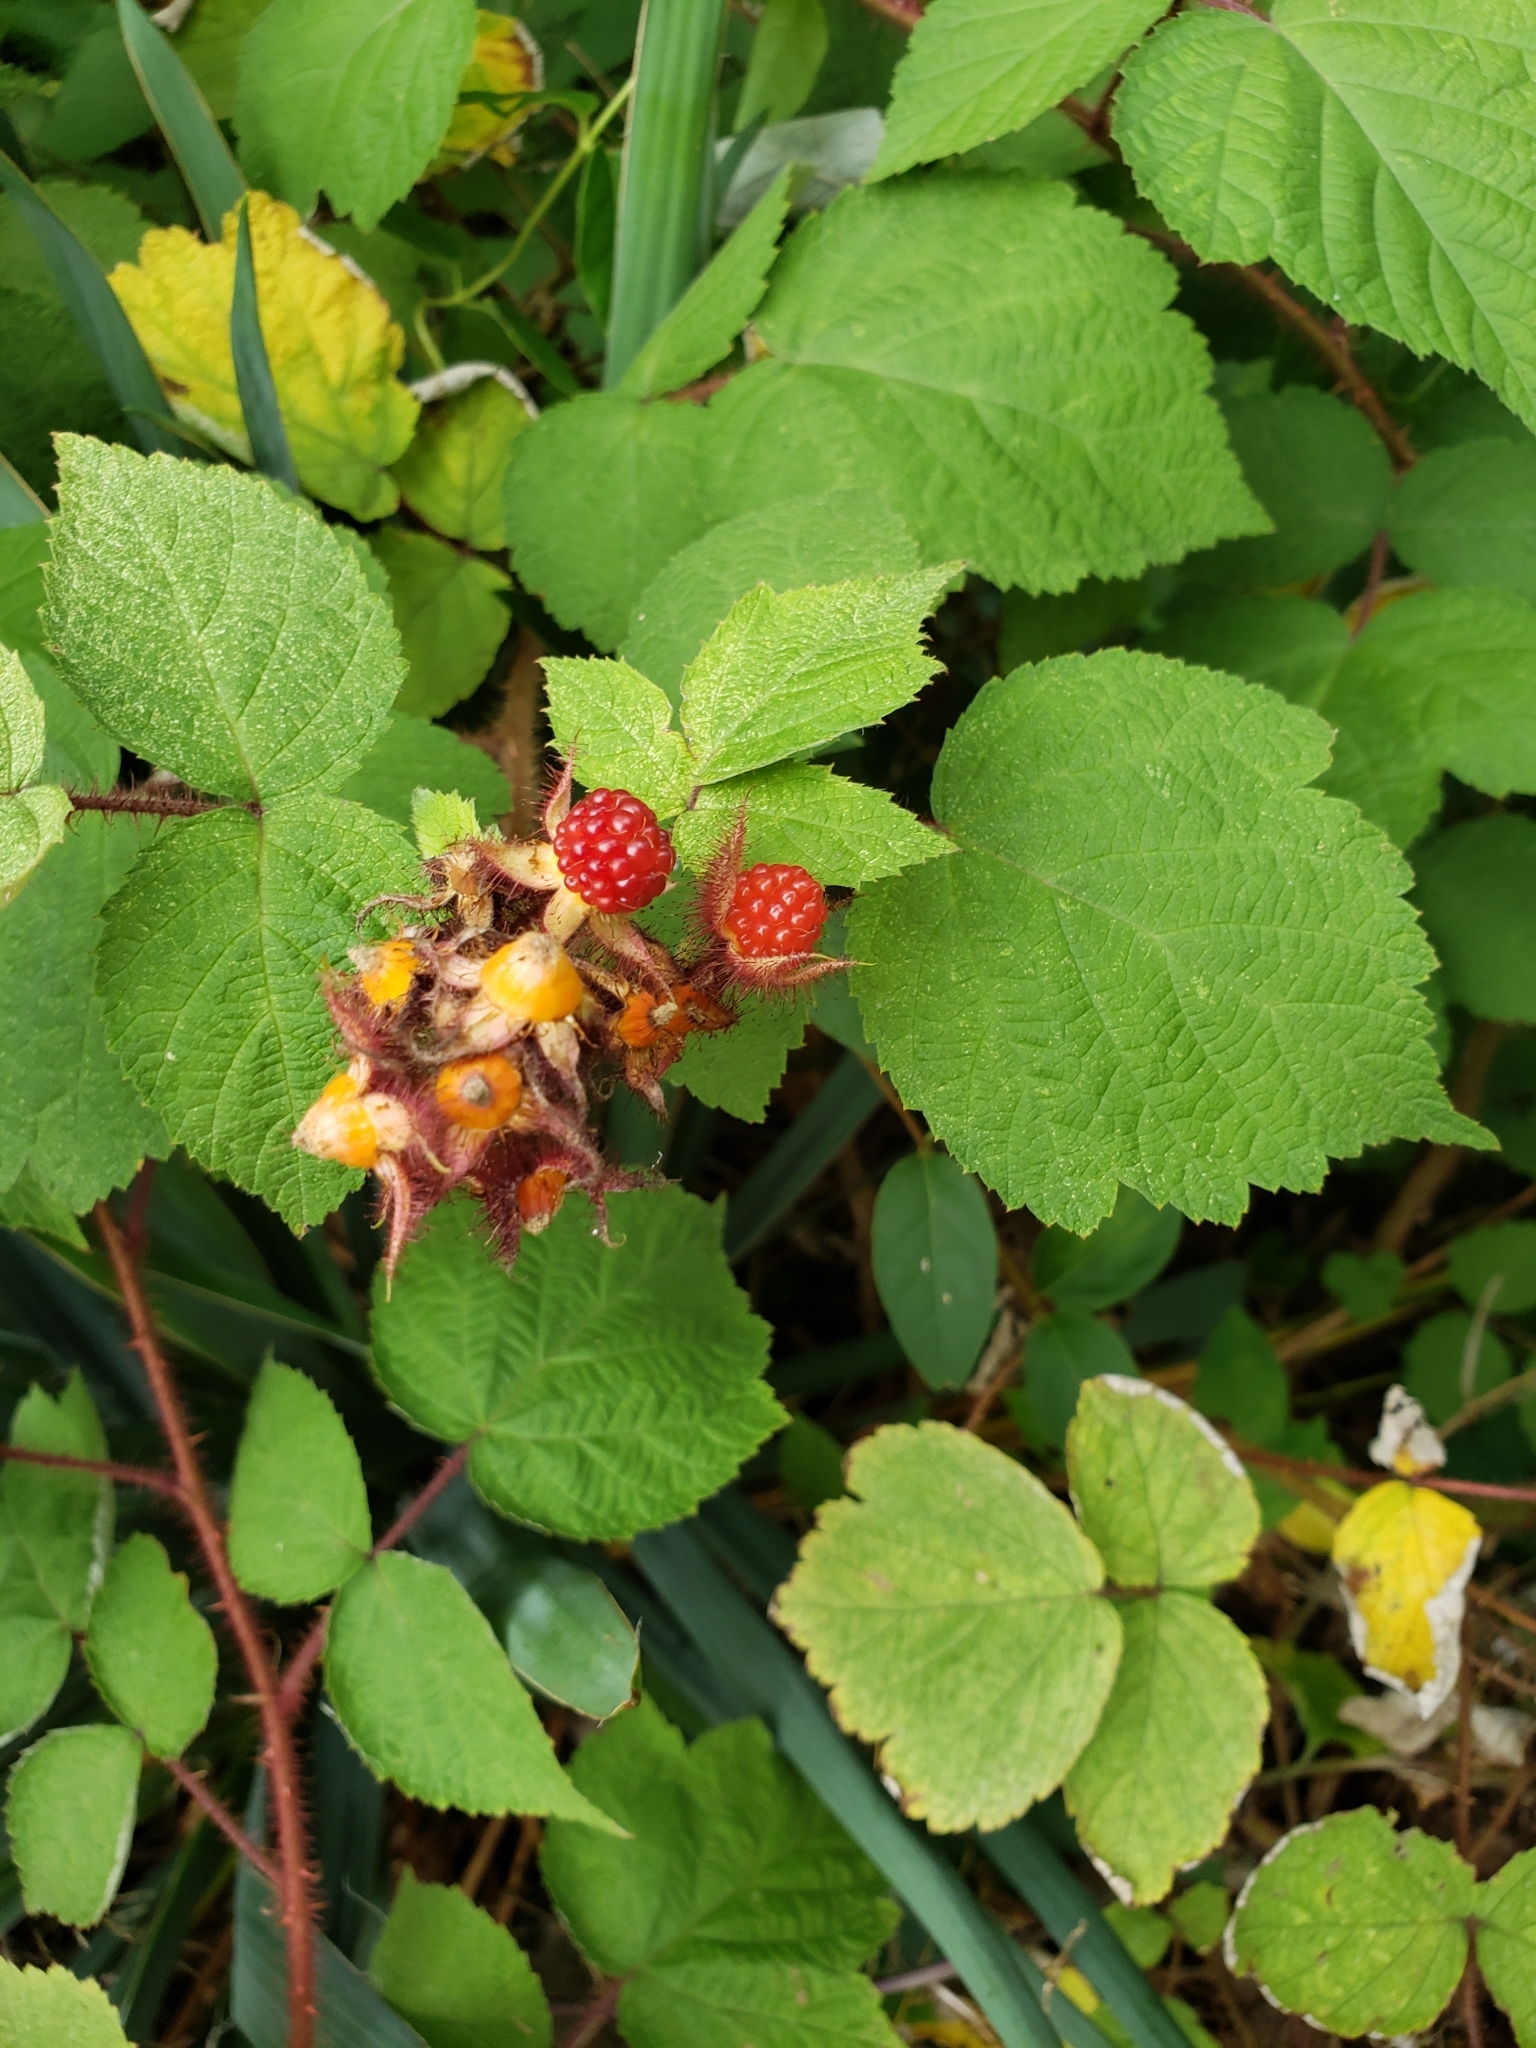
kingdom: Plantae
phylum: Tracheophyta
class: Magnoliopsida
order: Rosales
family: Rosaceae
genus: Rubus
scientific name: Rubus phoenicolasius
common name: Japanese wineberry
